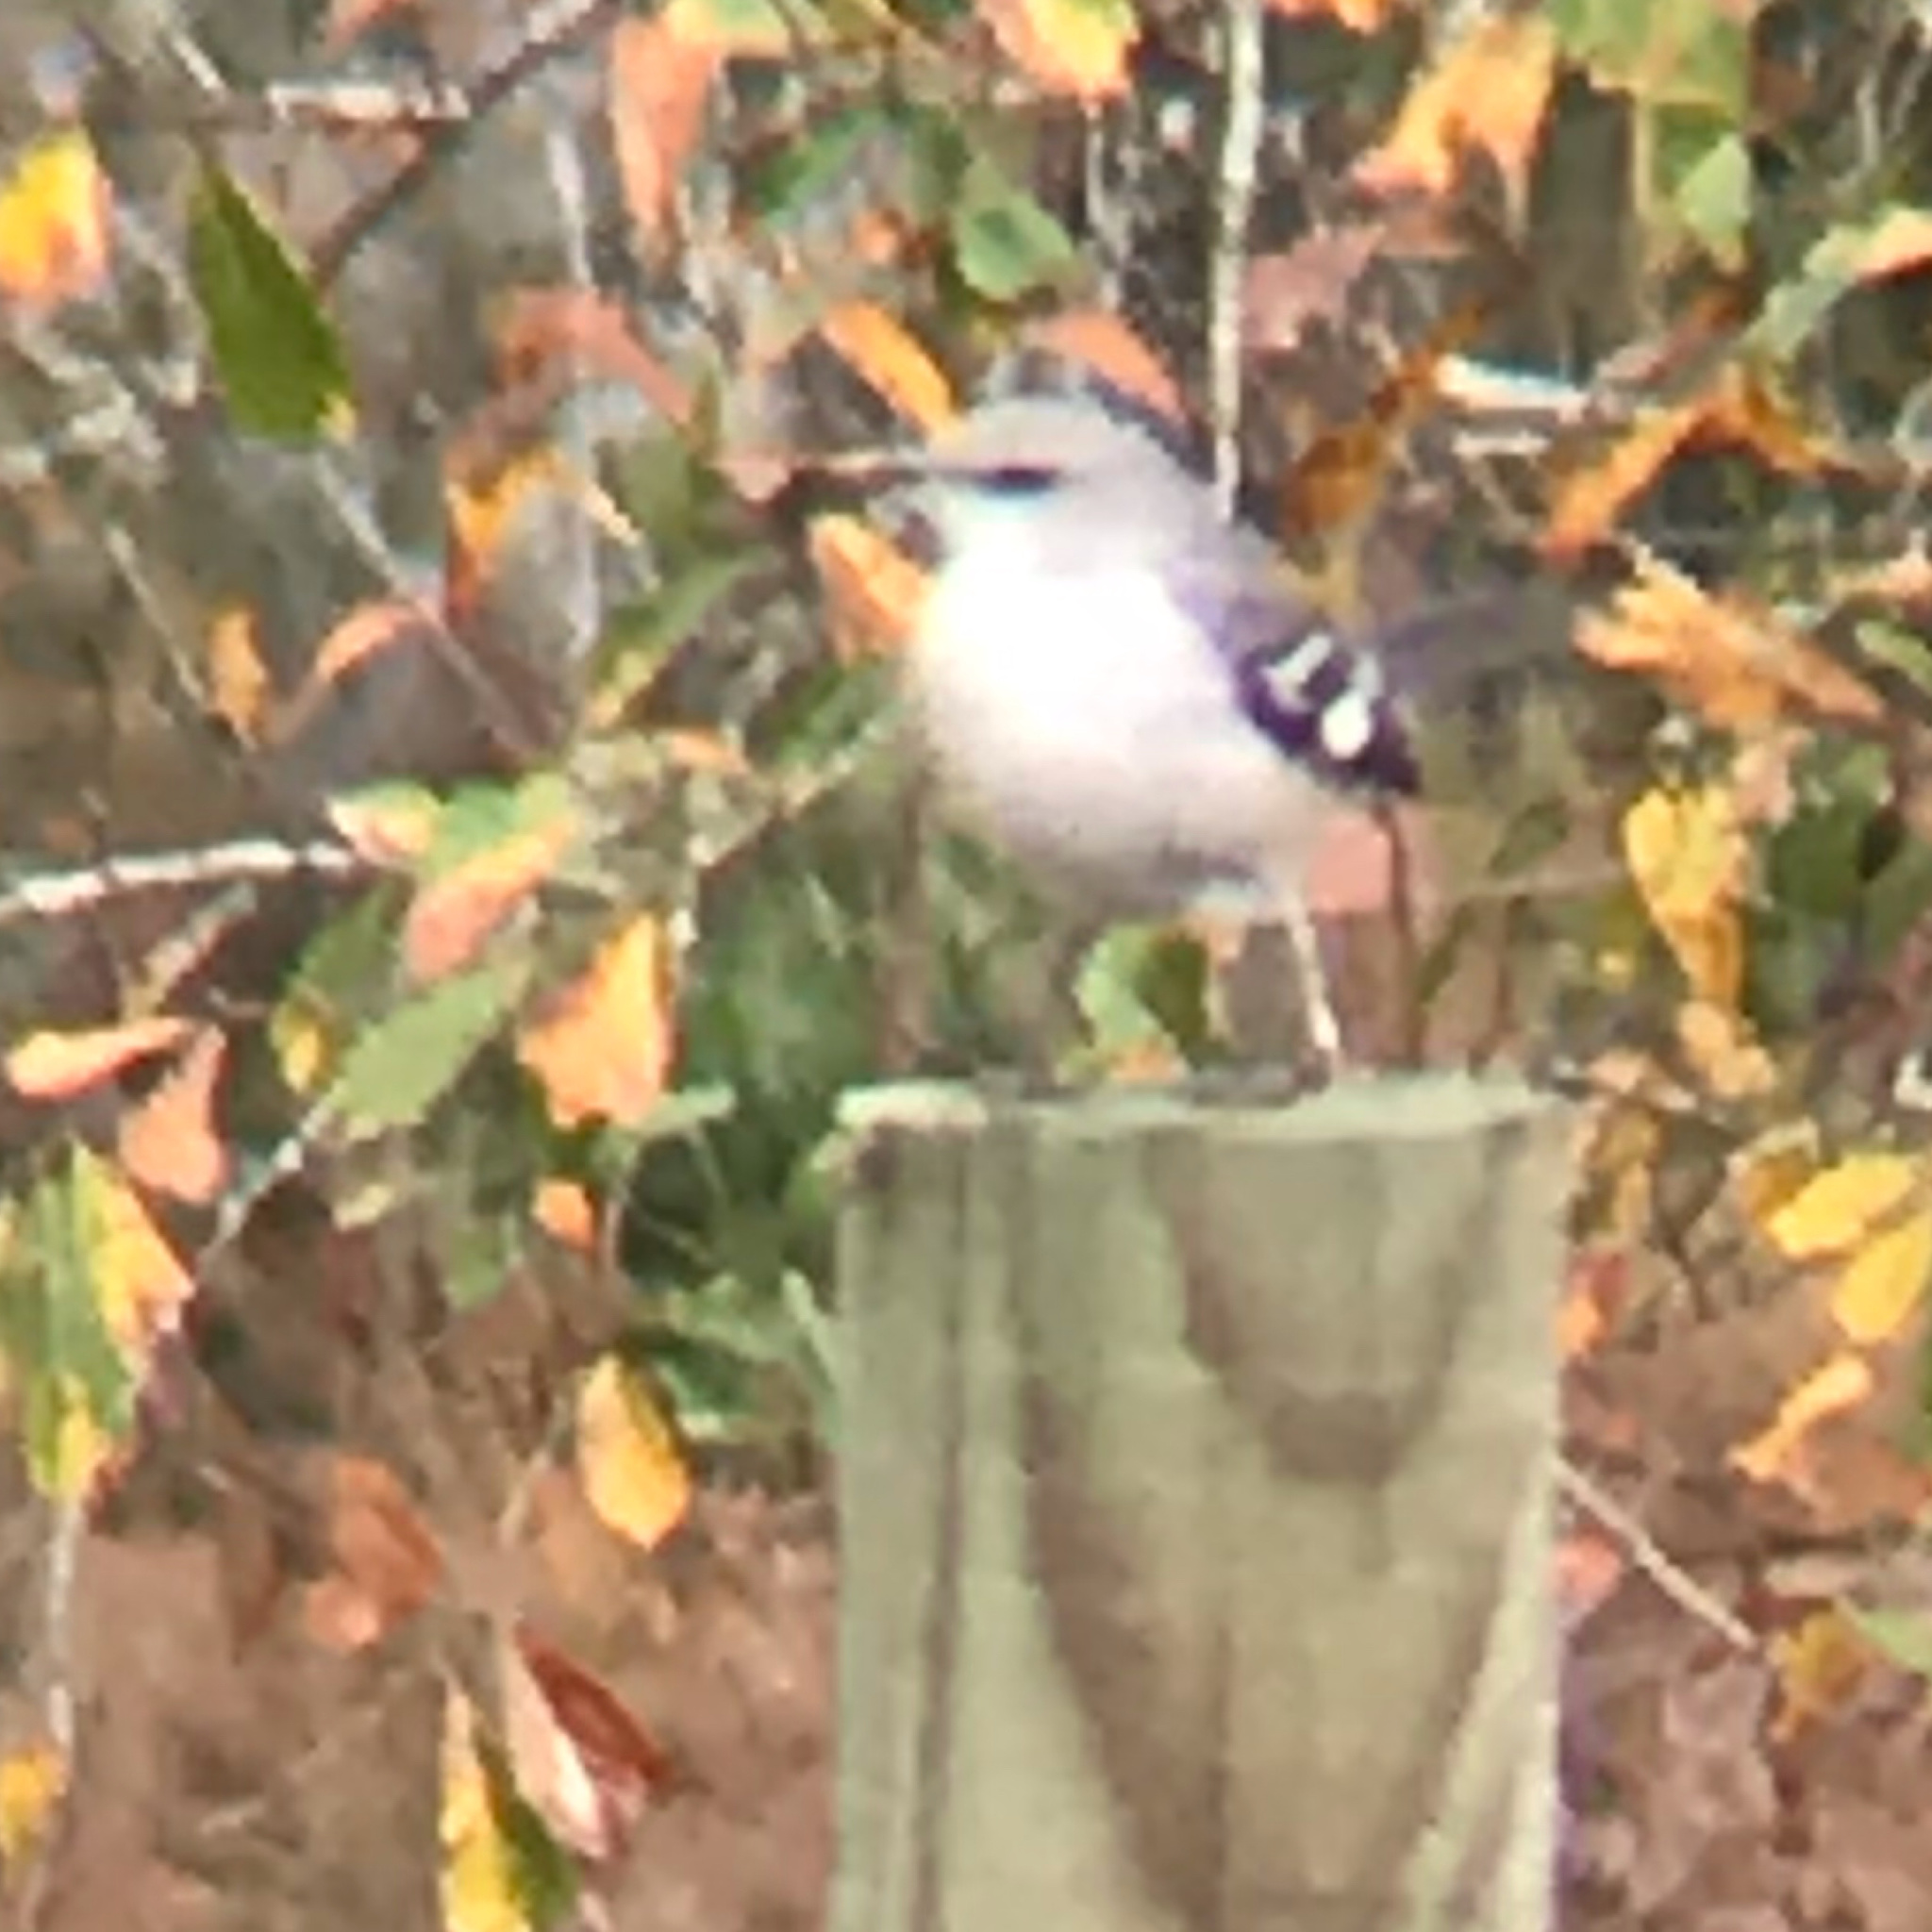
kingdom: Animalia
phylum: Chordata
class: Aves
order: Passeriformes
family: Mimidae
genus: Mimus
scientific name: Mimus polyglottos
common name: Northern mockingbird
